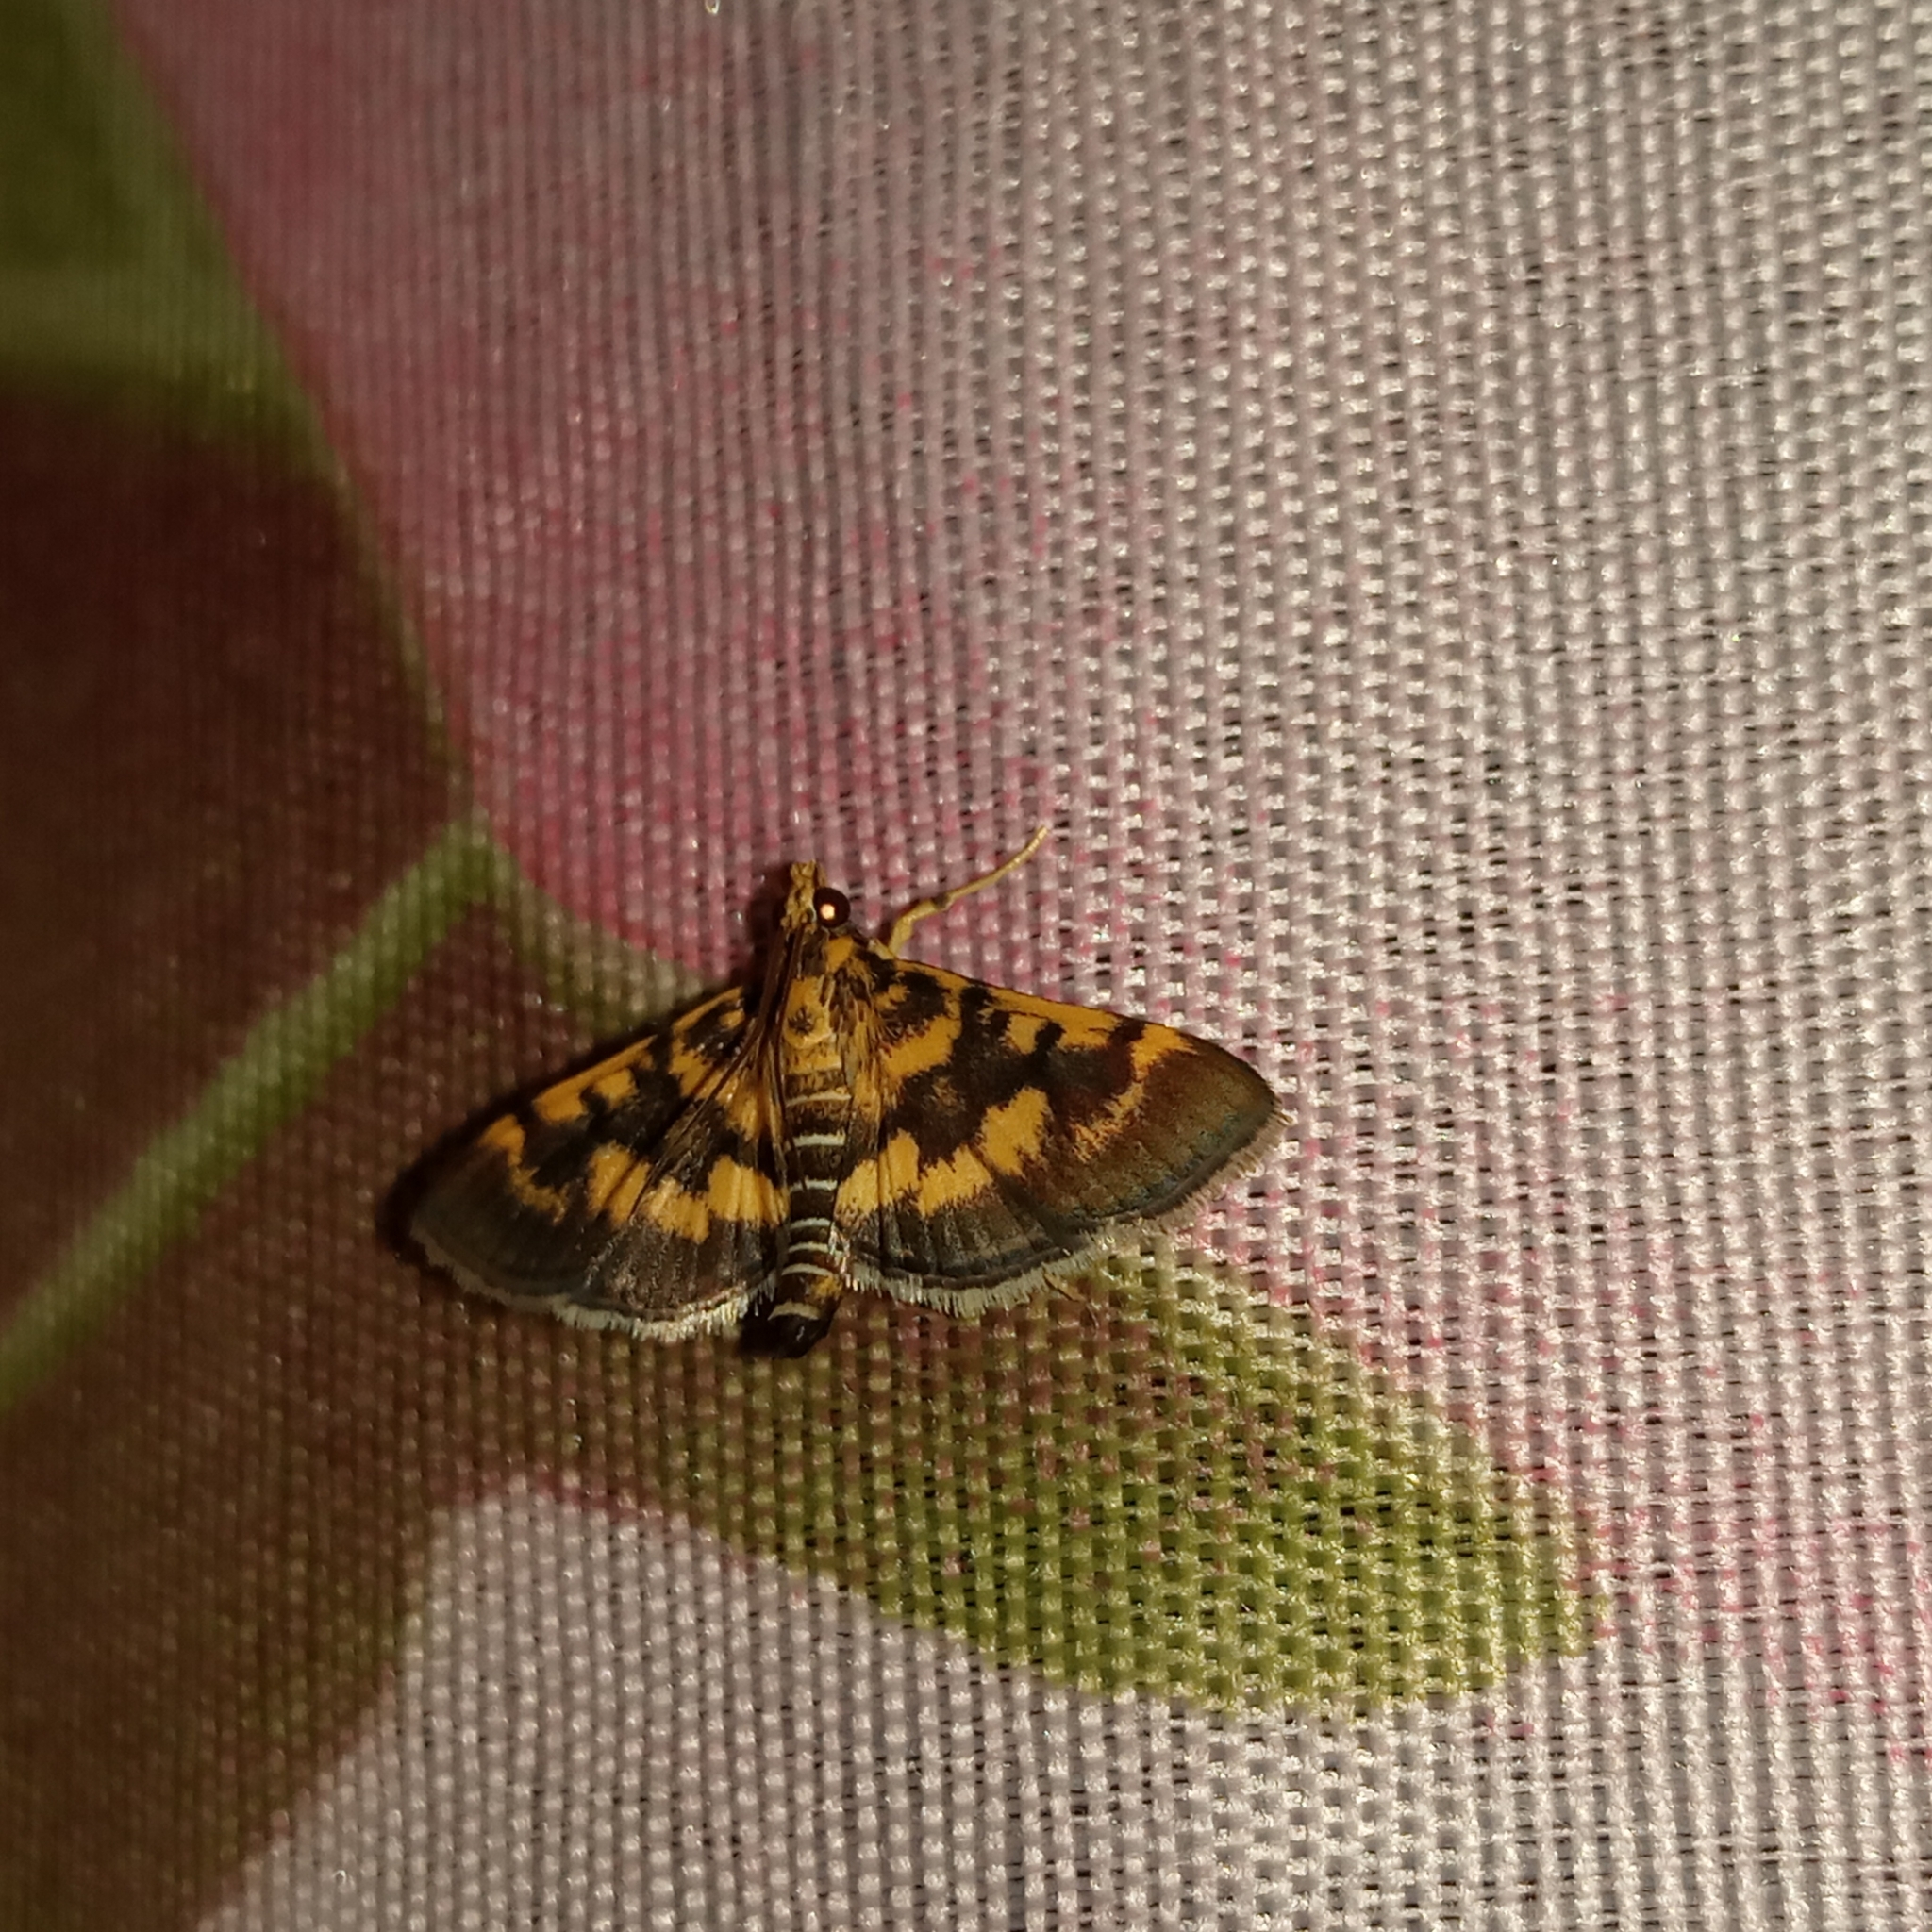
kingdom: Animalia
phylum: Arthropoda
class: Insecta
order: Lepidoptera
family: Crambidae
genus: Omiodes
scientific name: Omiodes diemenalis
